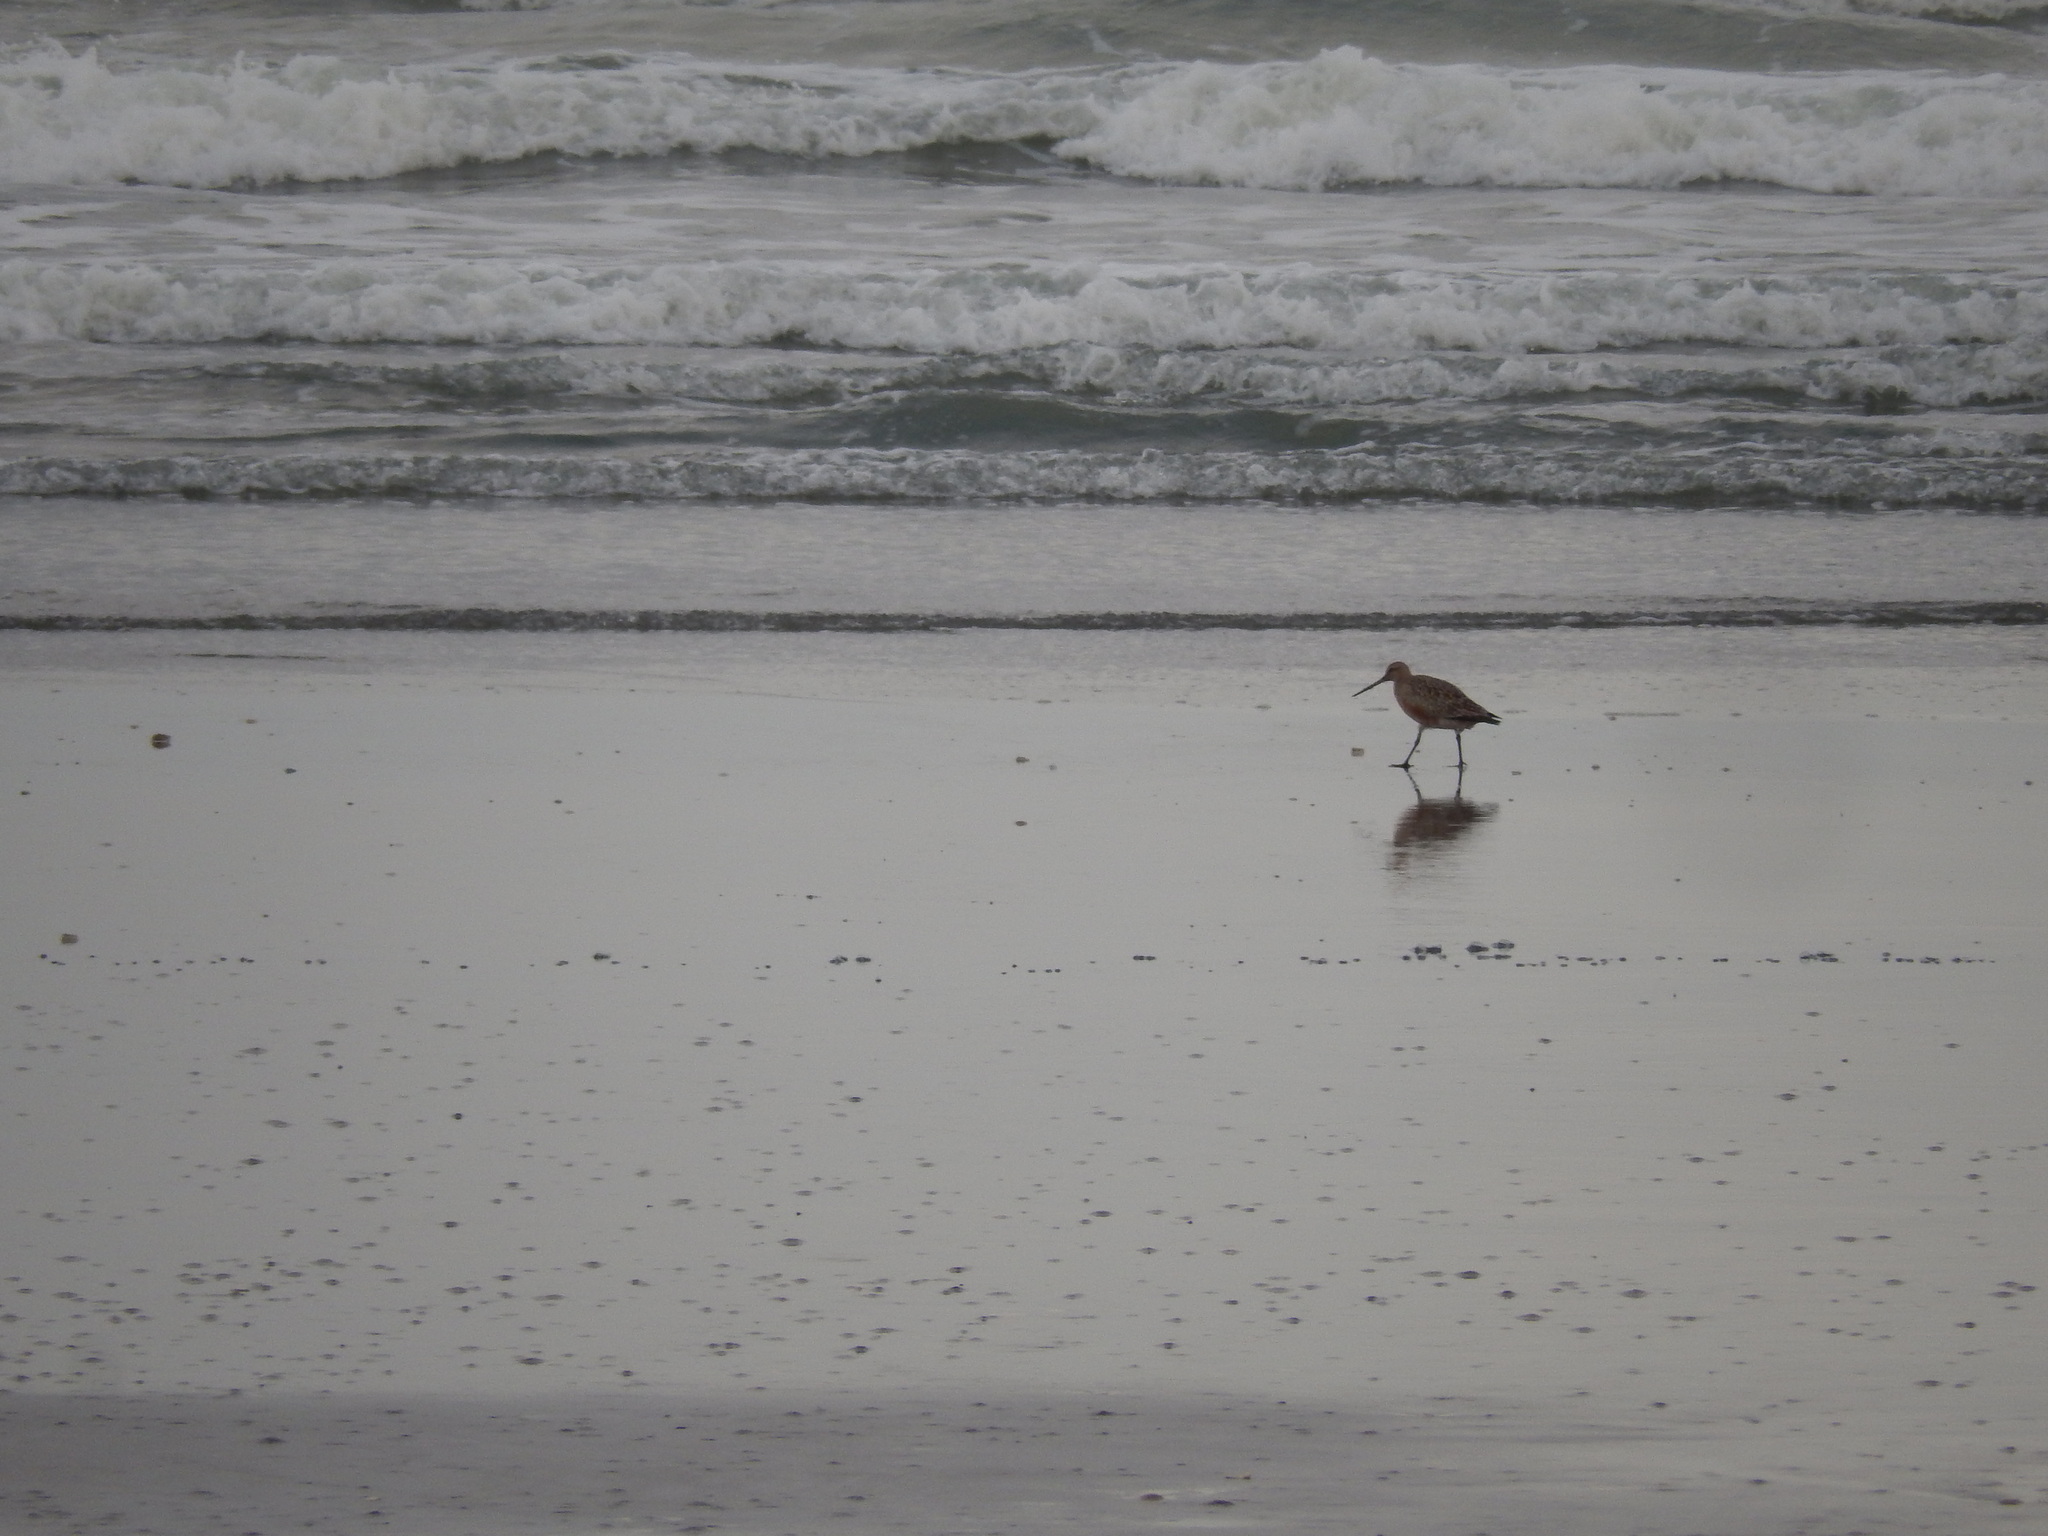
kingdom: Animalia
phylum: Chordata
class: Aves
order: Charadriiformes
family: Scolopacidae
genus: Limosa
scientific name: Limosa lapponica
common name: Bar-tailed godwit
